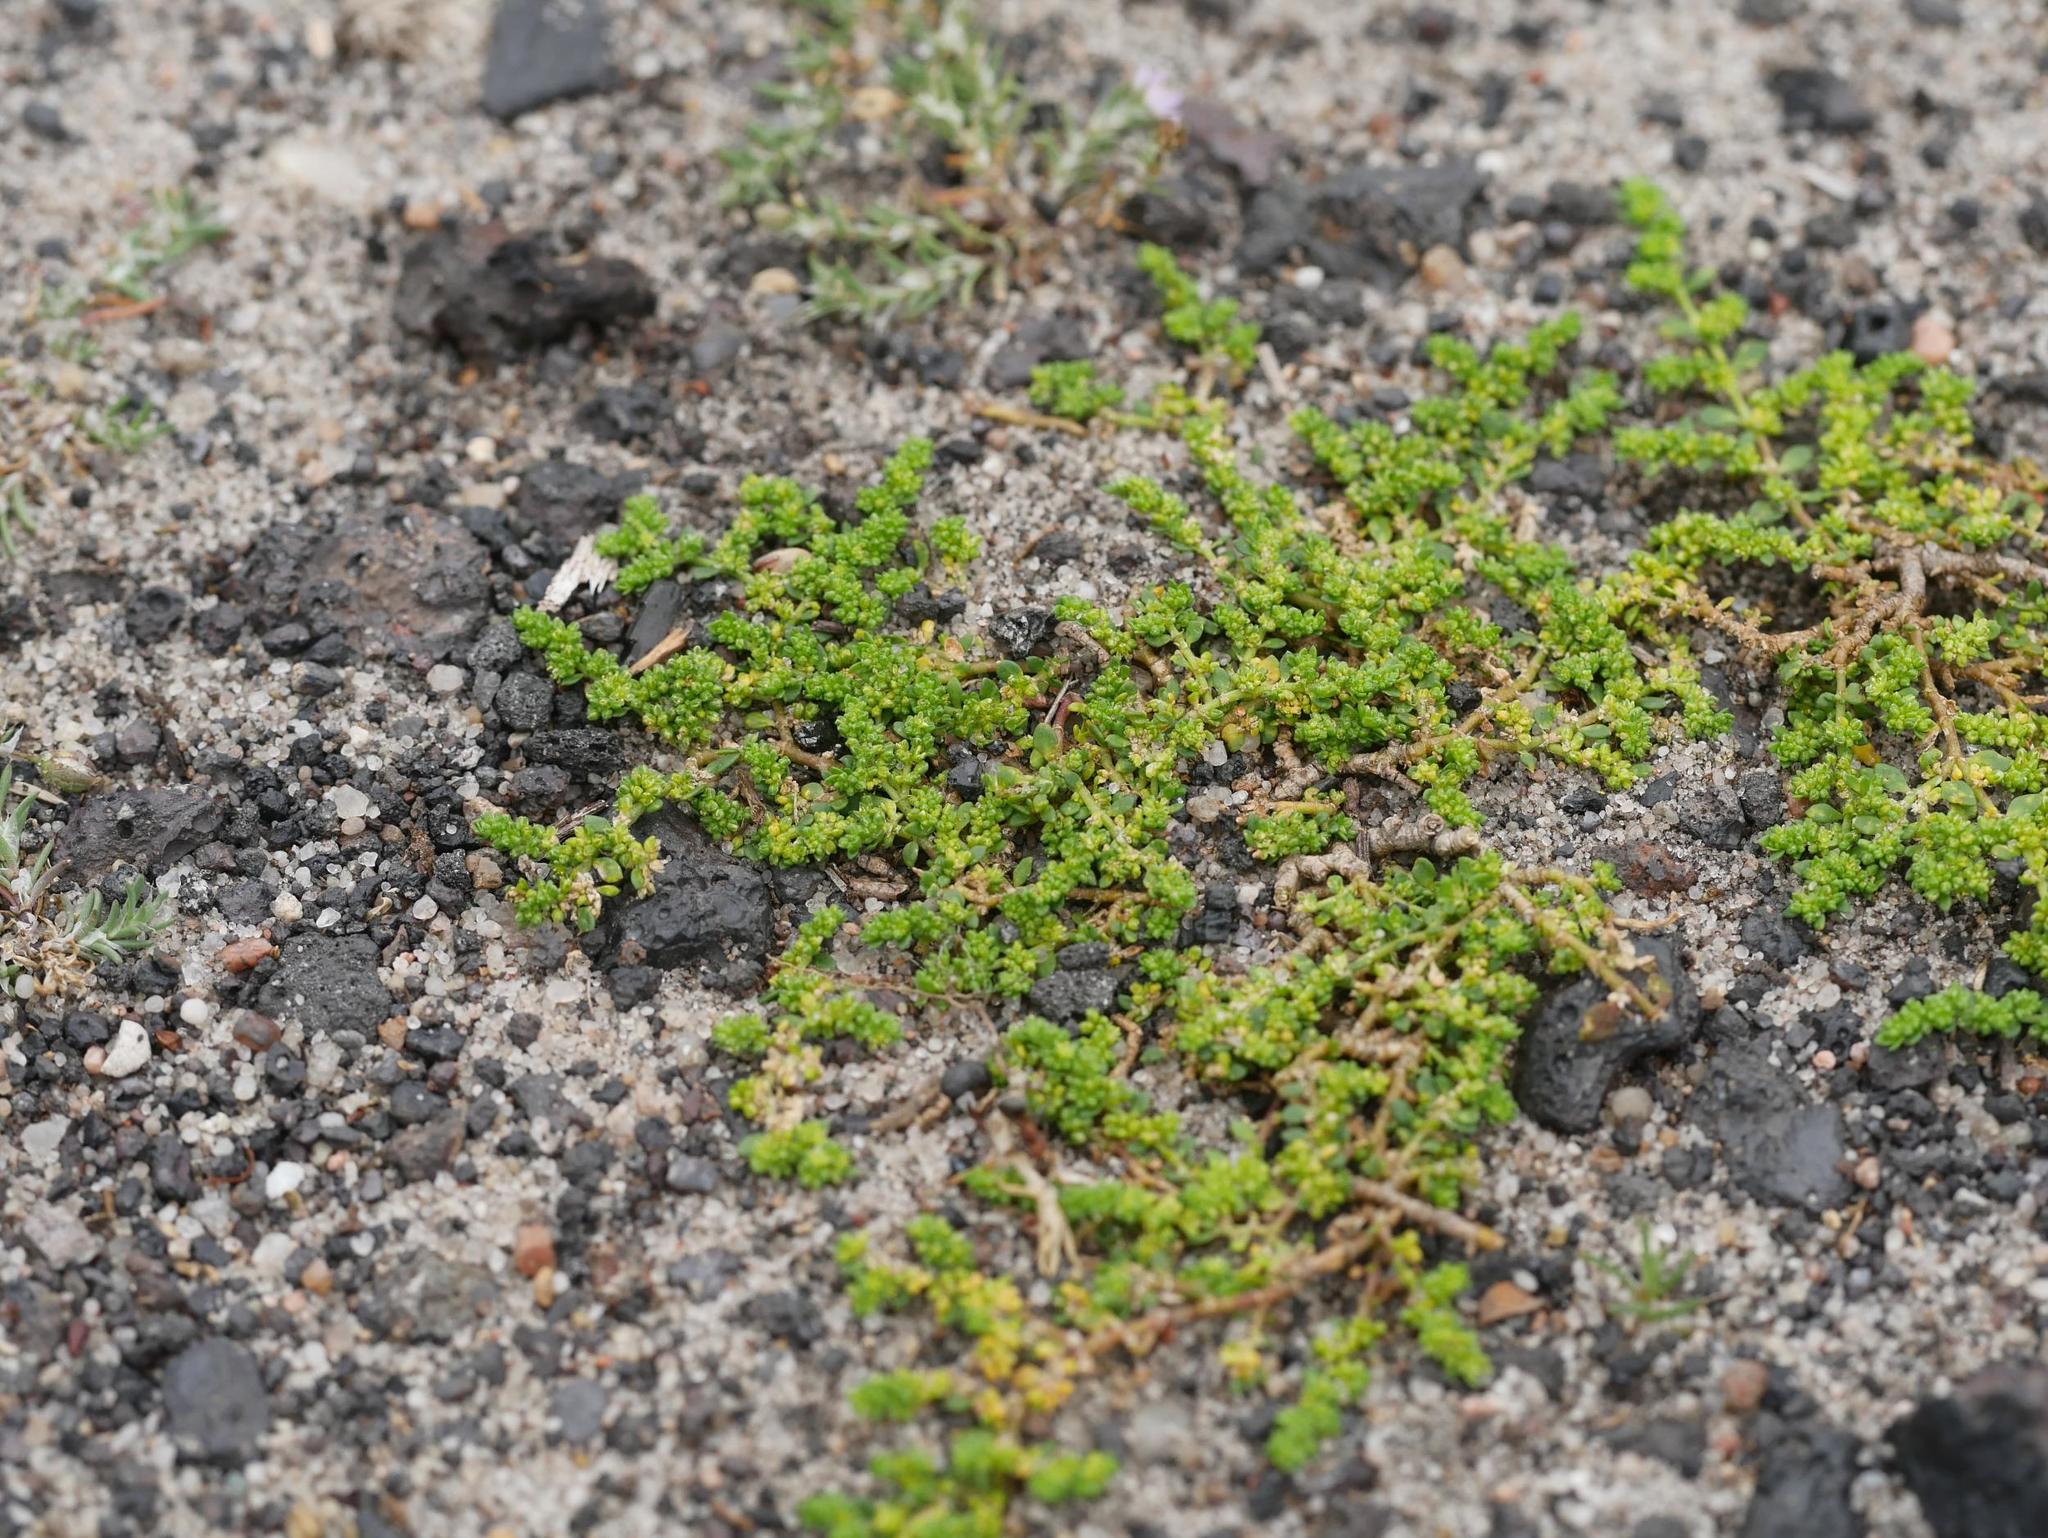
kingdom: Plantae
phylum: Tracheophyta
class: Magnoliopsida
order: Caryophyllales
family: Caryophyllaceae
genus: Herniaria
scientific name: Herniaria glabra
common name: Smooth rupturewort
